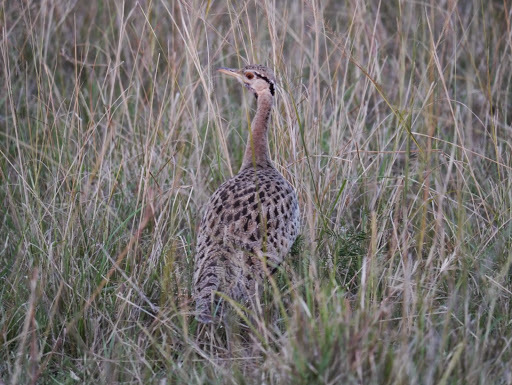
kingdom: Animalia
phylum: Chordata
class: Aves
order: Otidiformes
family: Otididae
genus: Lissotis
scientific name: Lissotis melanogaster
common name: Black-bellied bustard
